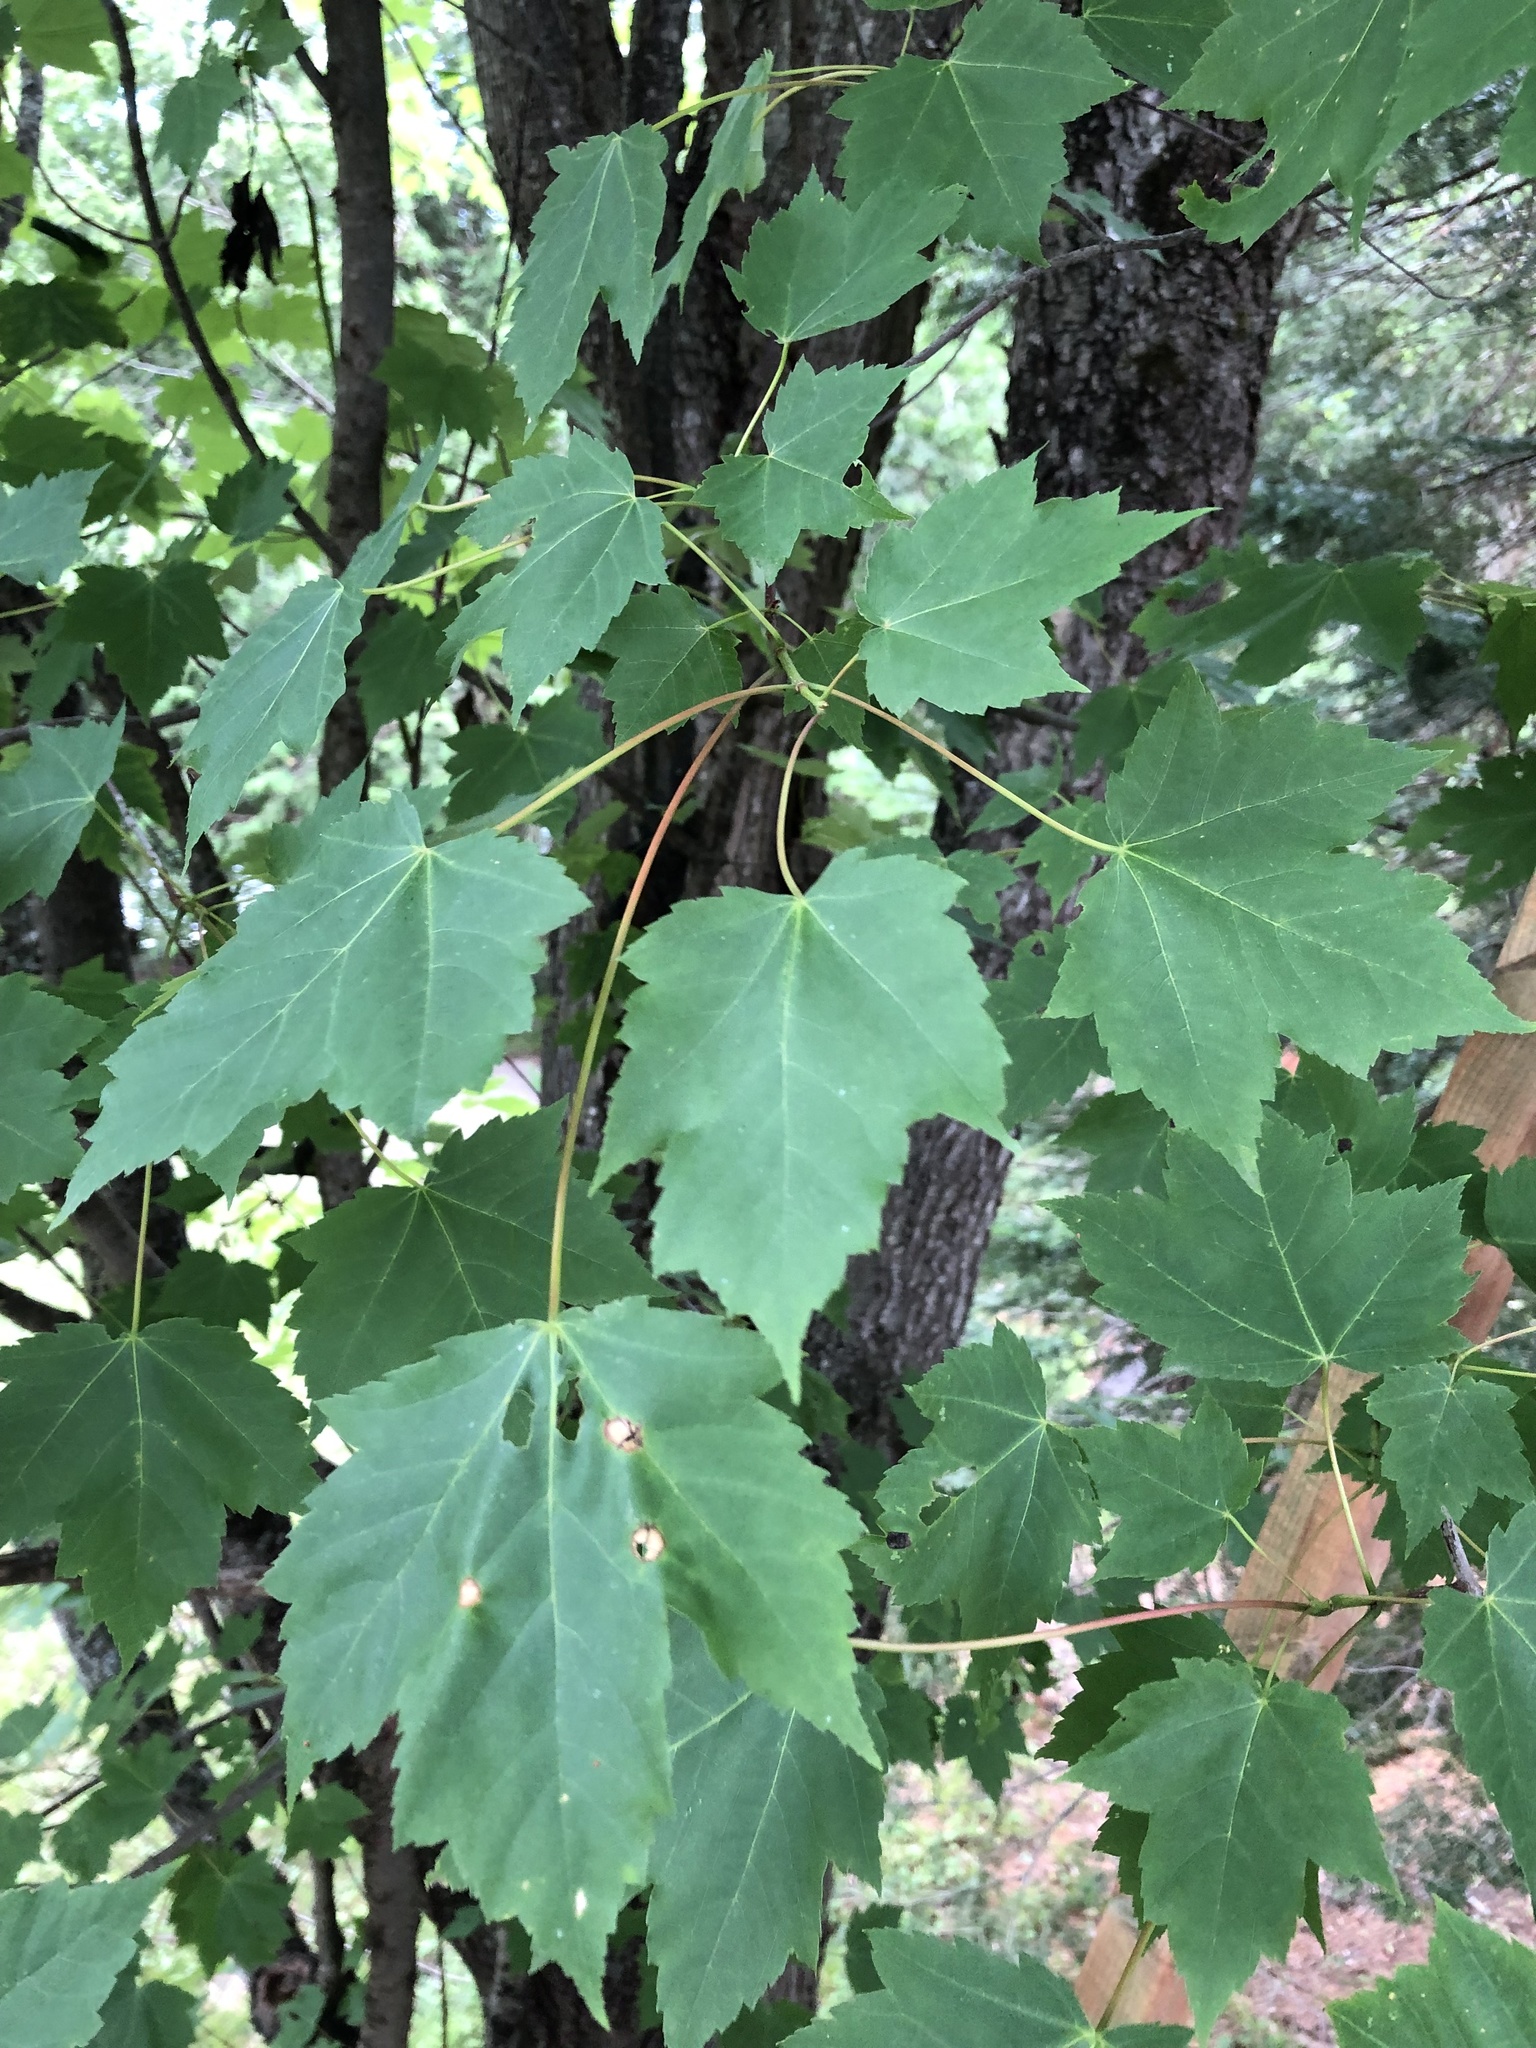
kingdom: Plantae
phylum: Tracheophyta
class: Magnoliopsida
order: Sapindales
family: Sapindaceae
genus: Acer
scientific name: Acer rubrum
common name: Red maple
